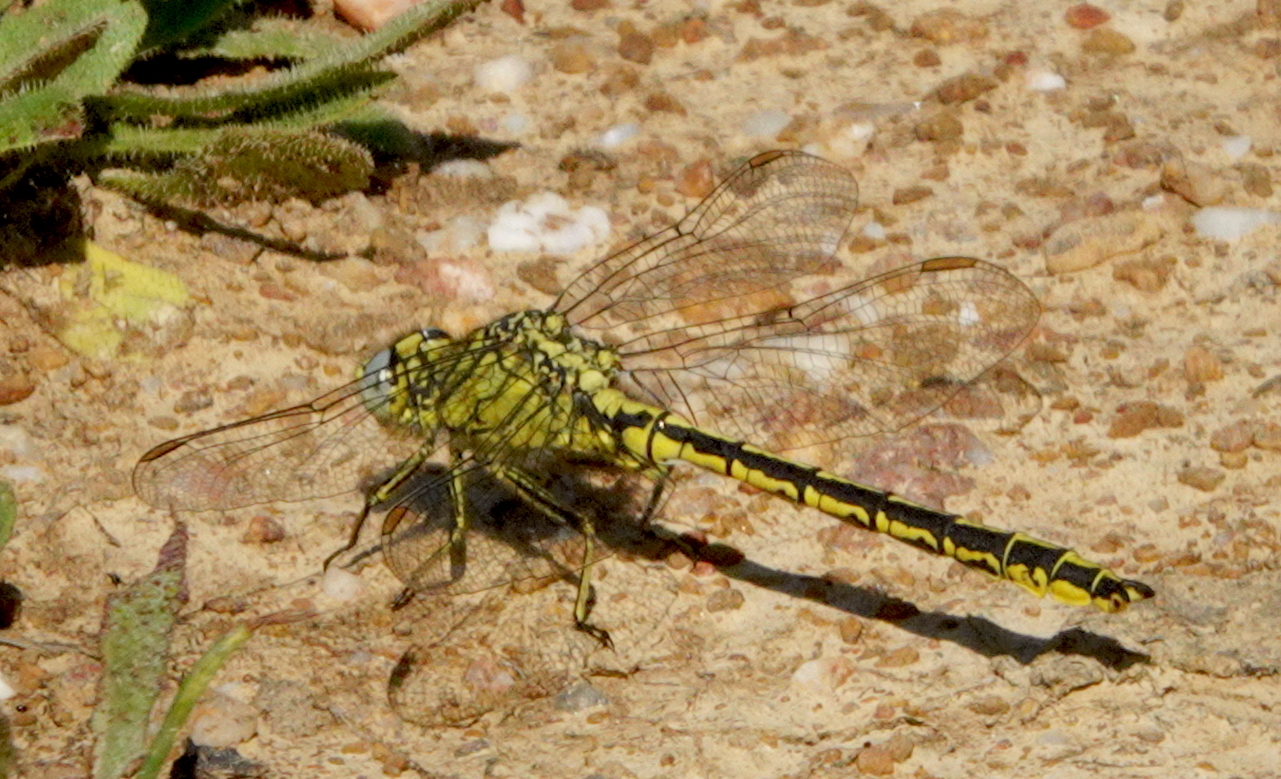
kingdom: Animalia
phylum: Arthropoda
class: Insecta
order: Odonata
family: Gomphidae
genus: Gomphus
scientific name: Gomphus pulchellus
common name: Western clubtail
